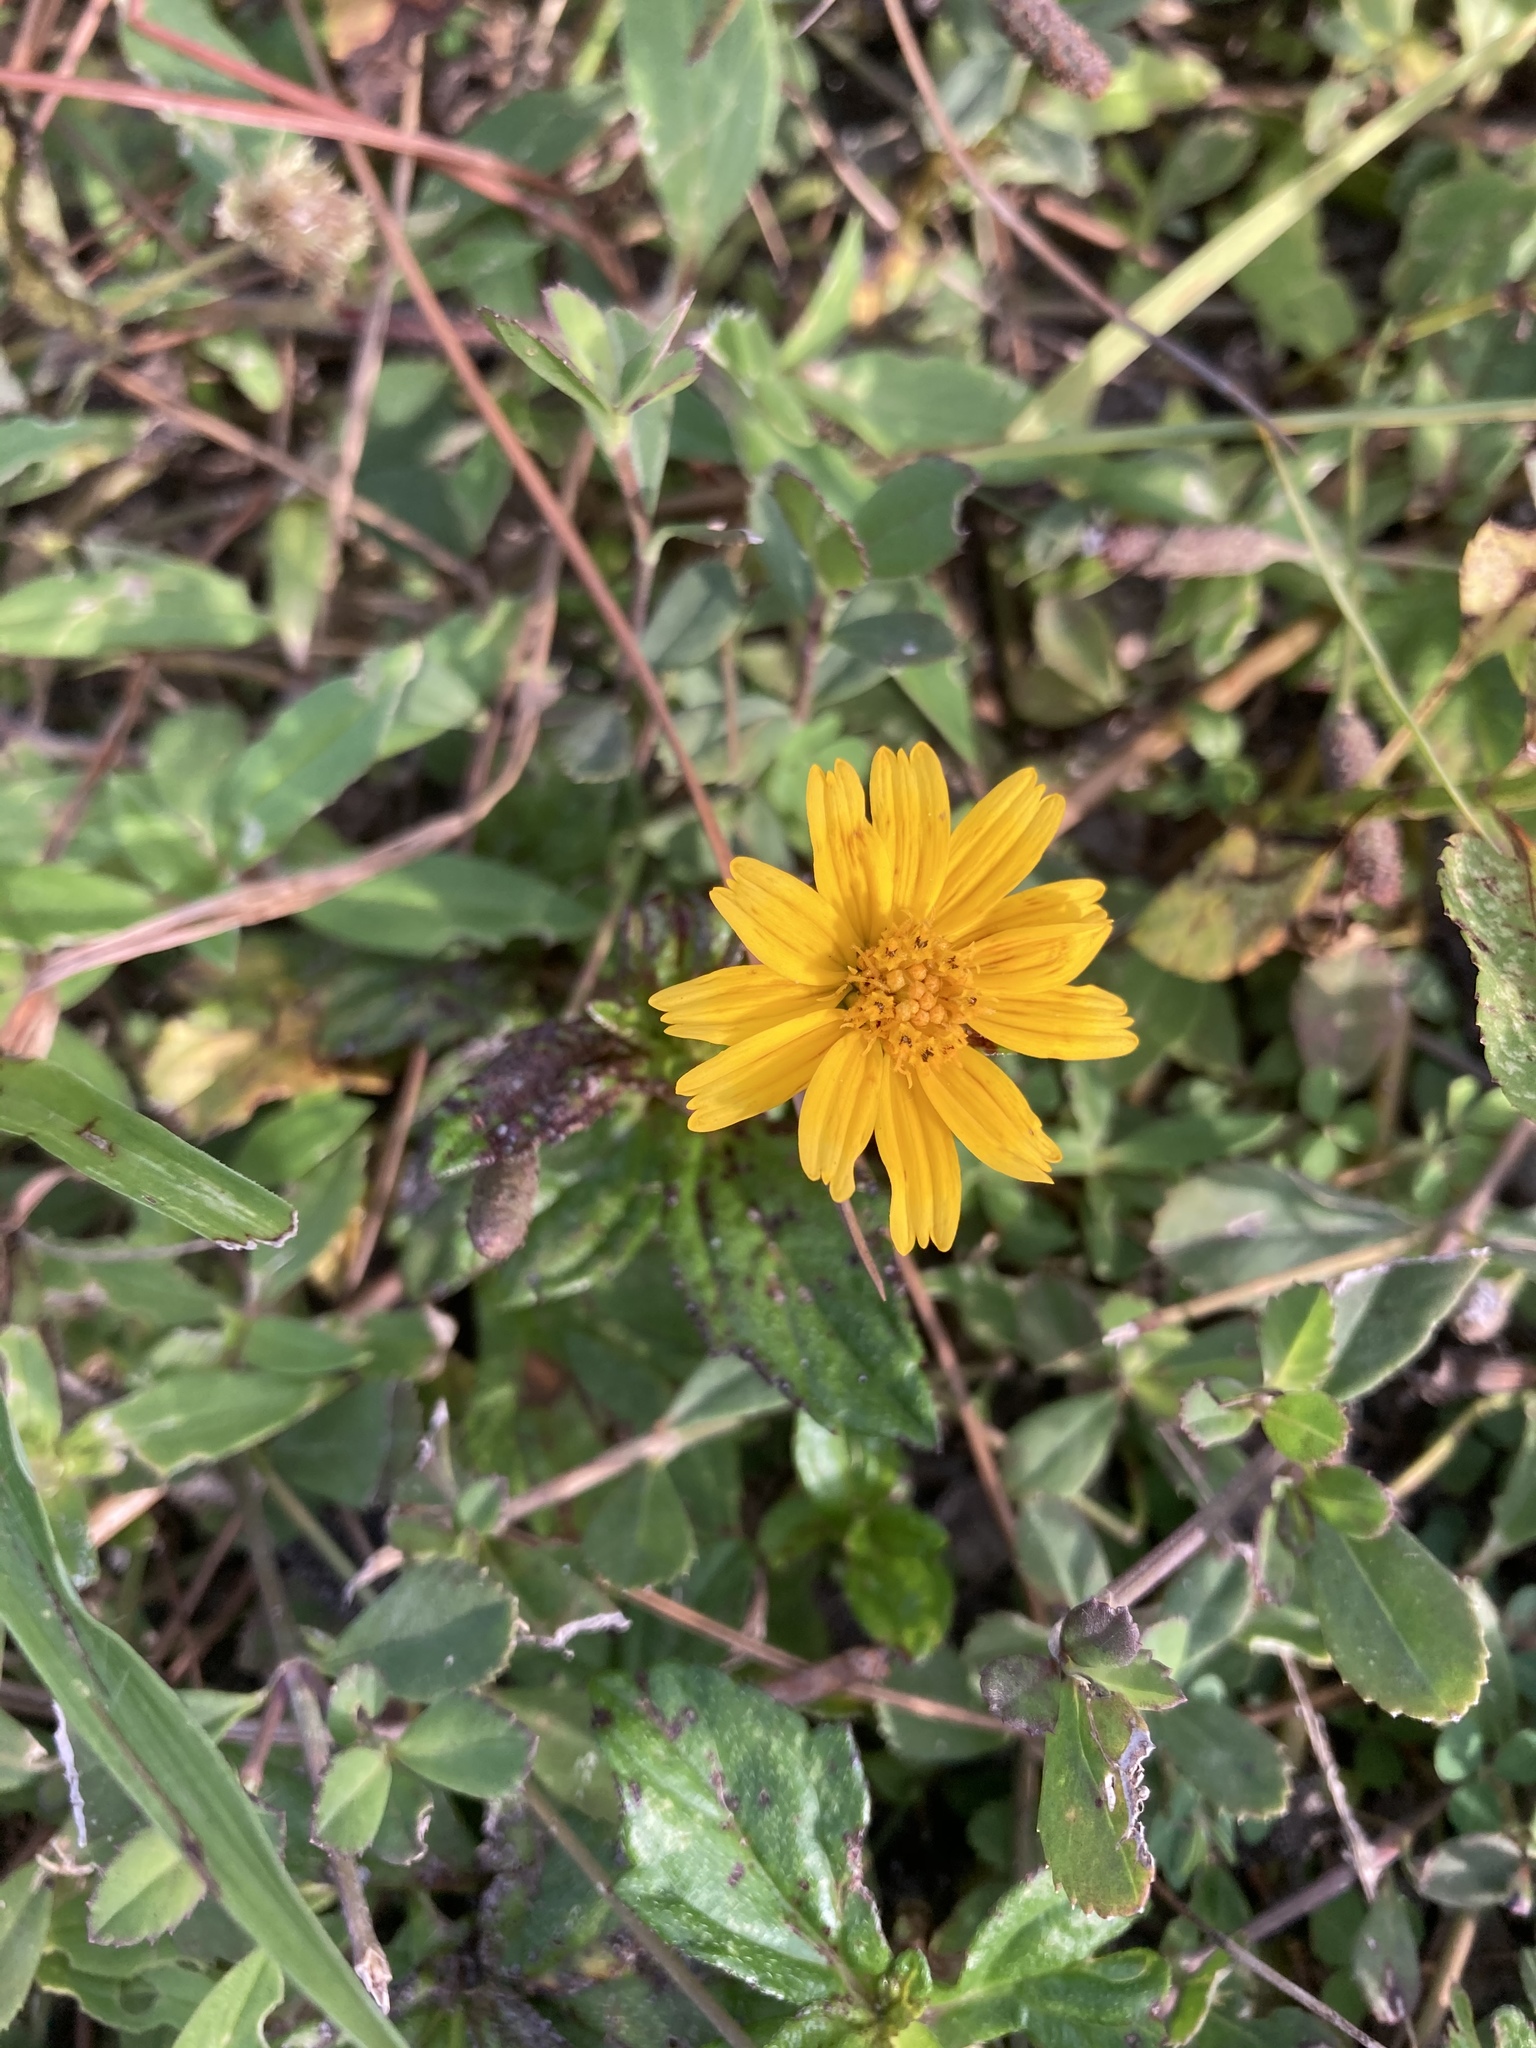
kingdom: Plantae
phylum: Tracheophyta
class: Magnoliopsida
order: Asterales
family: Asteraceae
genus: Sphagneticola
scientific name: Sphagneticola trilobata
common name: Bay biscayne creeping-oxeye
